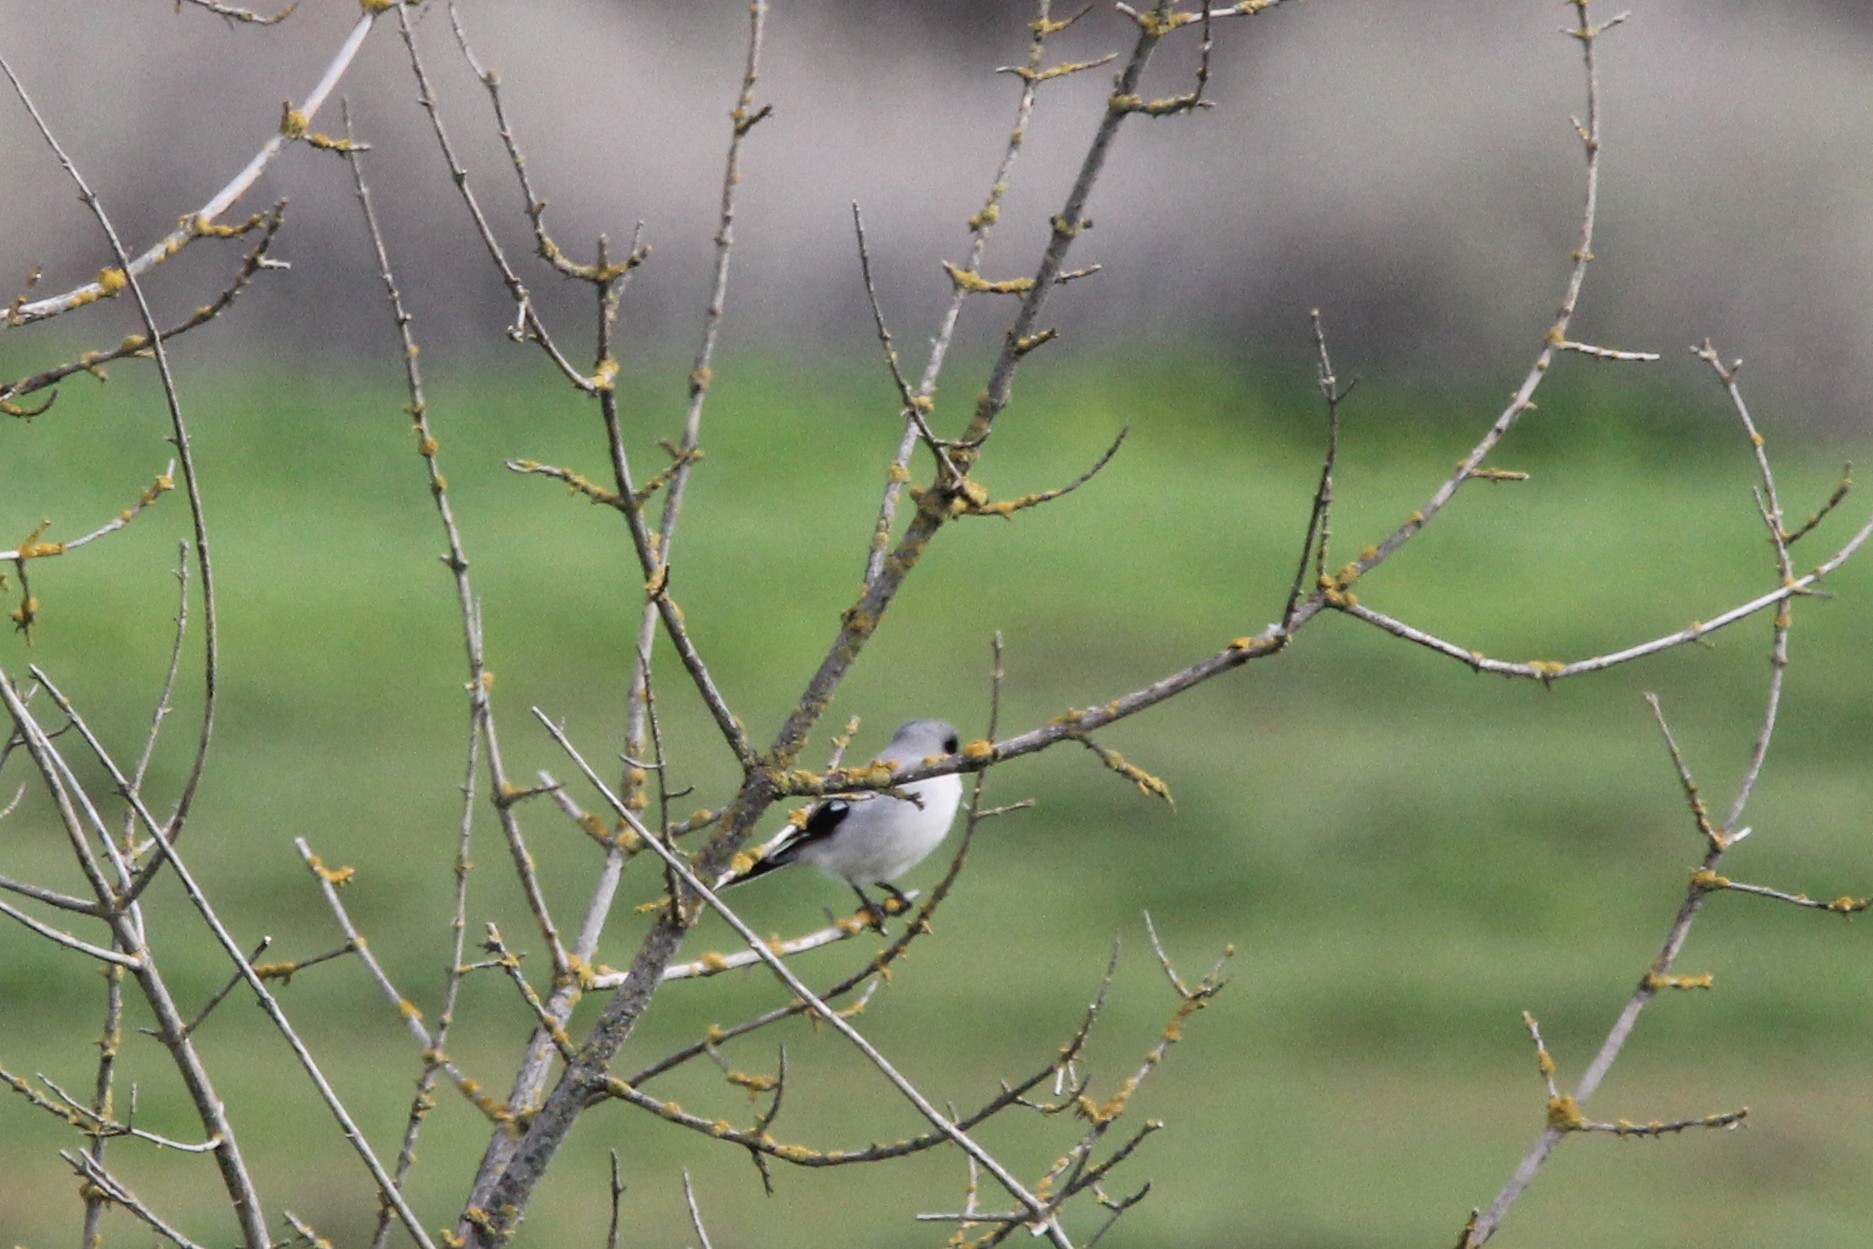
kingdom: Animalia
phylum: Chordata
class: Aves
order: Passeriformes
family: Laniidae
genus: Lanius
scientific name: Lanius ludovicianus
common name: Loggerhead shrike
